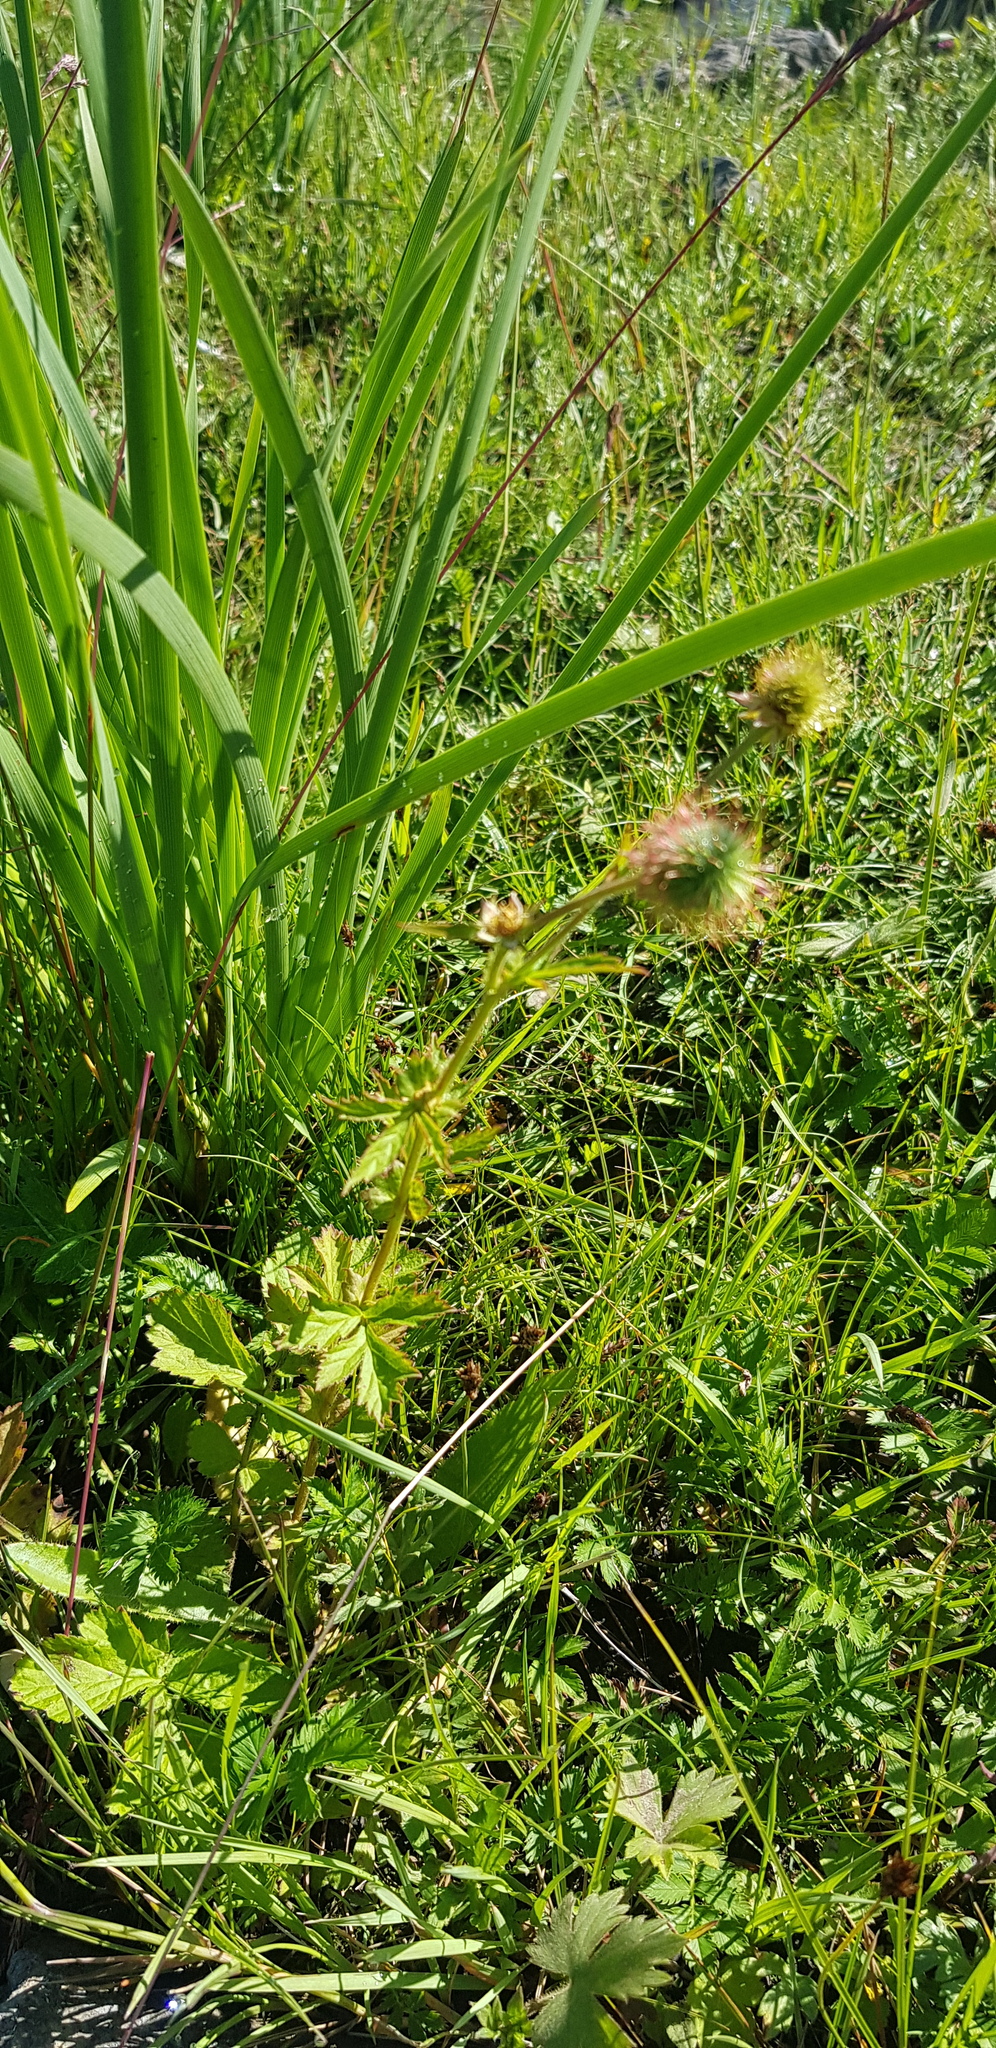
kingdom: Plantae
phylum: Tracheophyta
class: Magnoliopsida
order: Rosales
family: Rosaceae
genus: Geum
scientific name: Geum aleppicum
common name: Yellow avens
